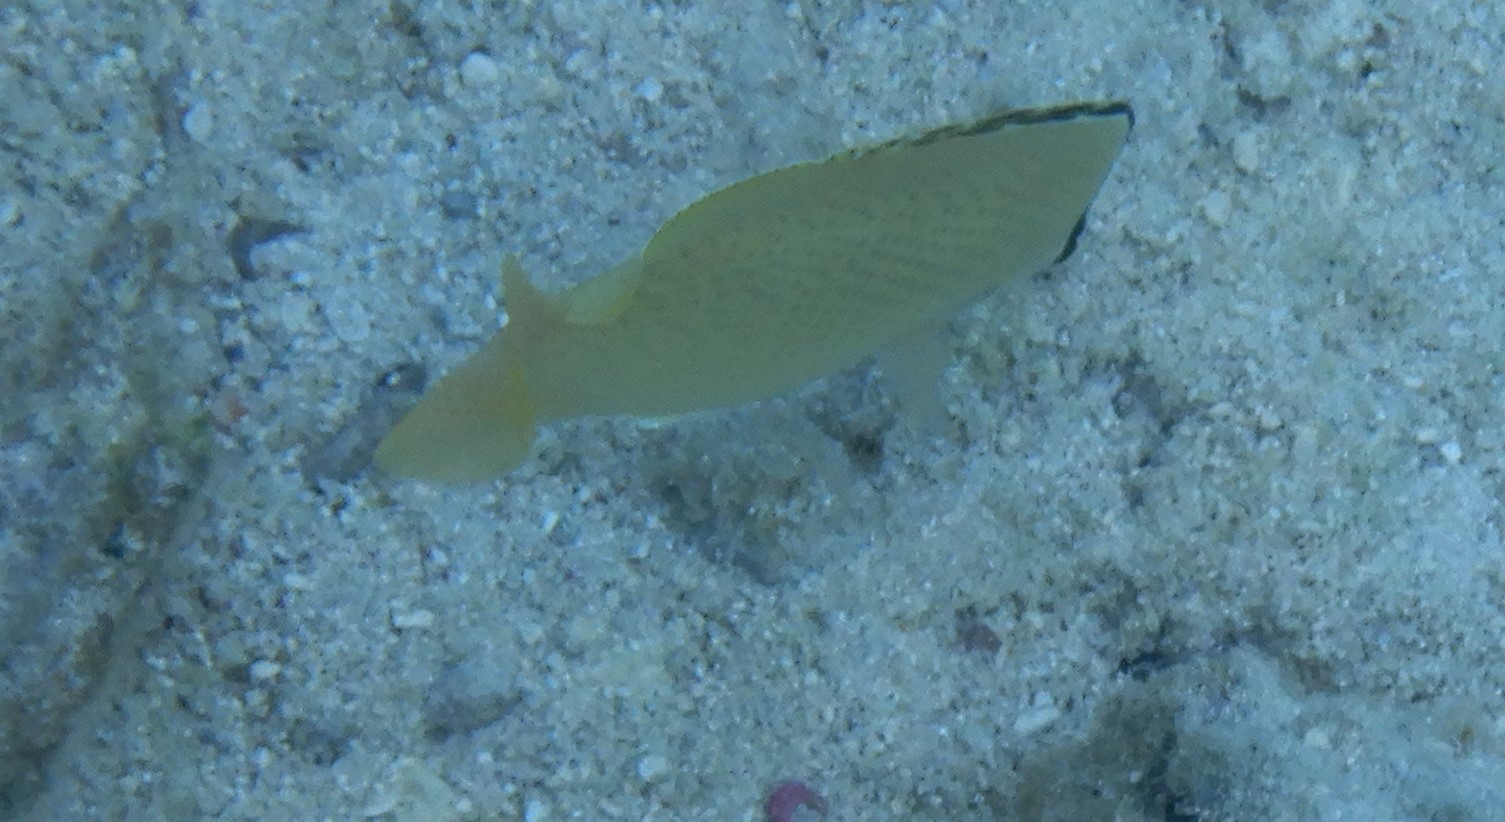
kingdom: Animalia
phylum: Chordata
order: Perciformes
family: Chaetodontidae
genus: Chaetodon
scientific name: Chaetodon citrinellus
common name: Speckled butterflyfish
